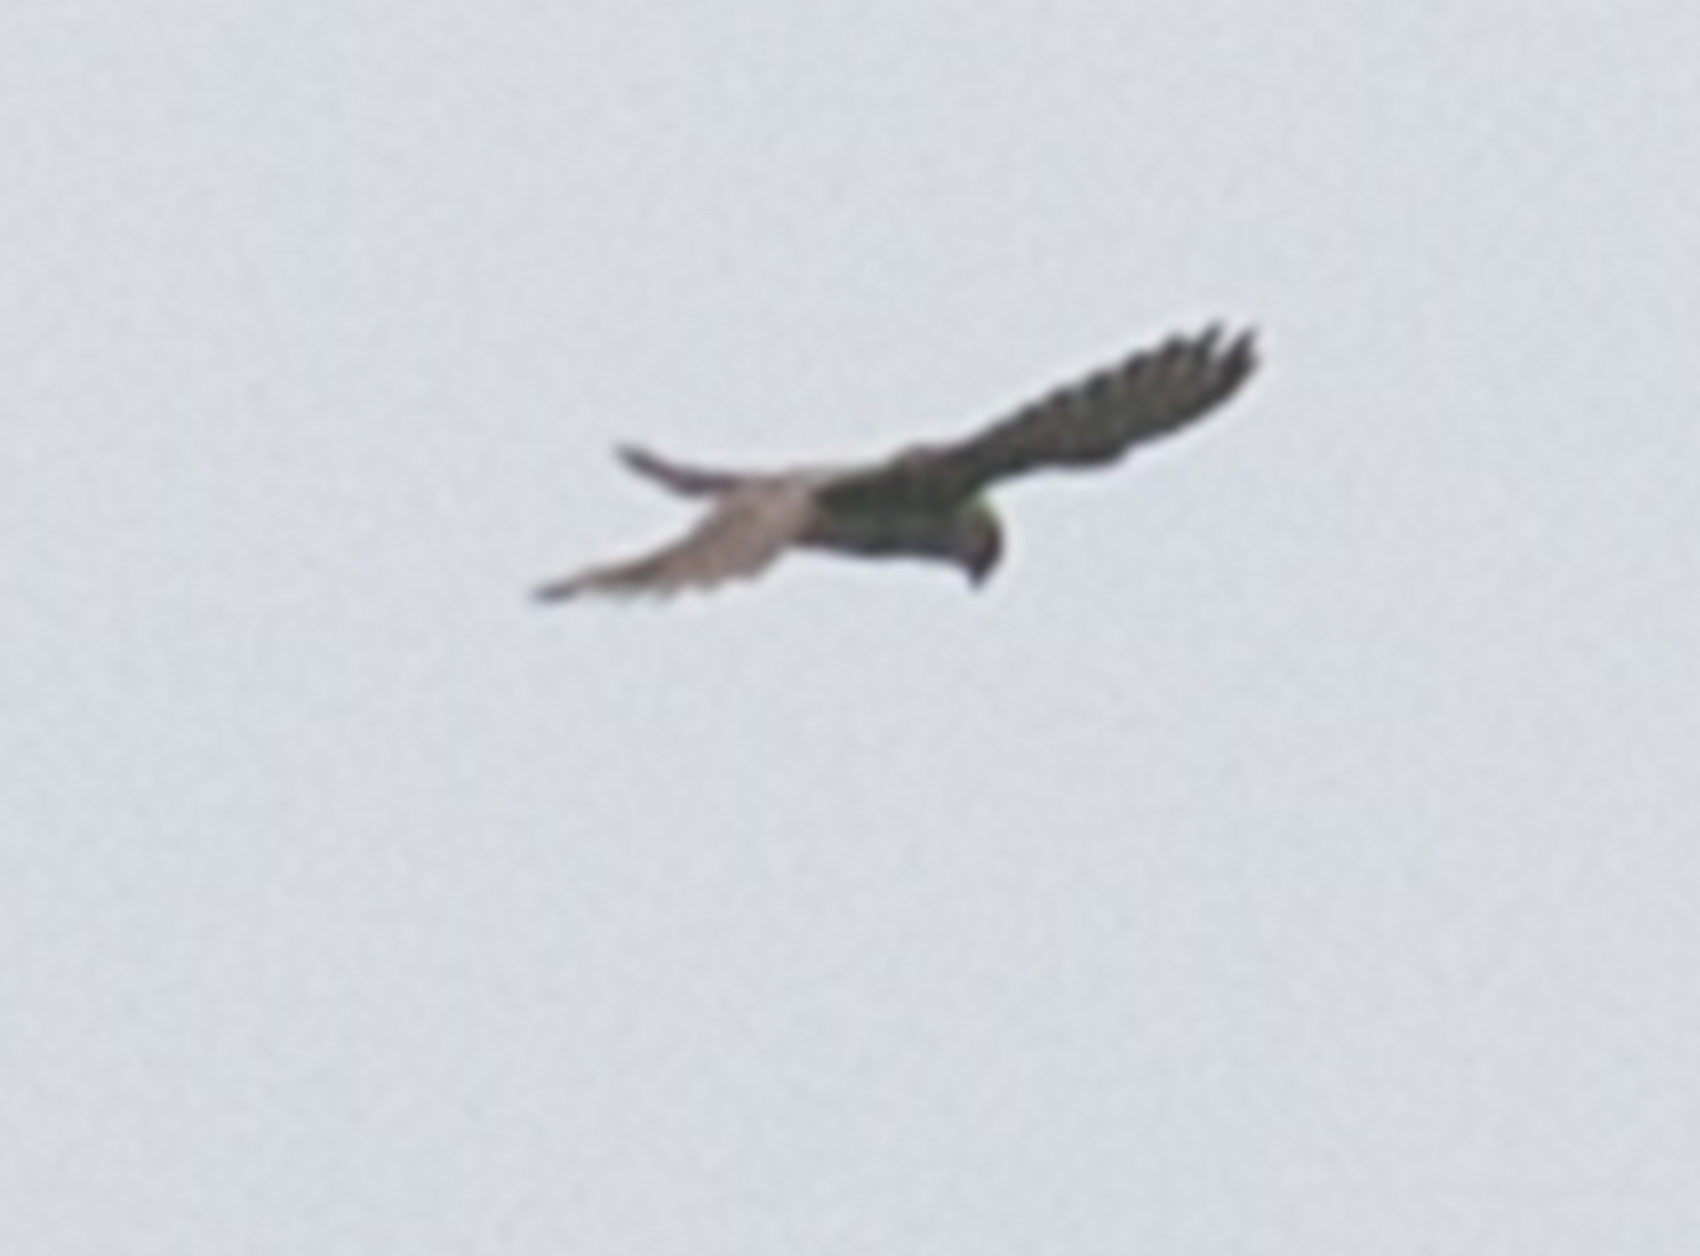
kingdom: Animalia
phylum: Chordata
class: Aves
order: Falconiformes
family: Falconidae
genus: Falco
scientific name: Falco tinnunculus
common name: Common kestrel
